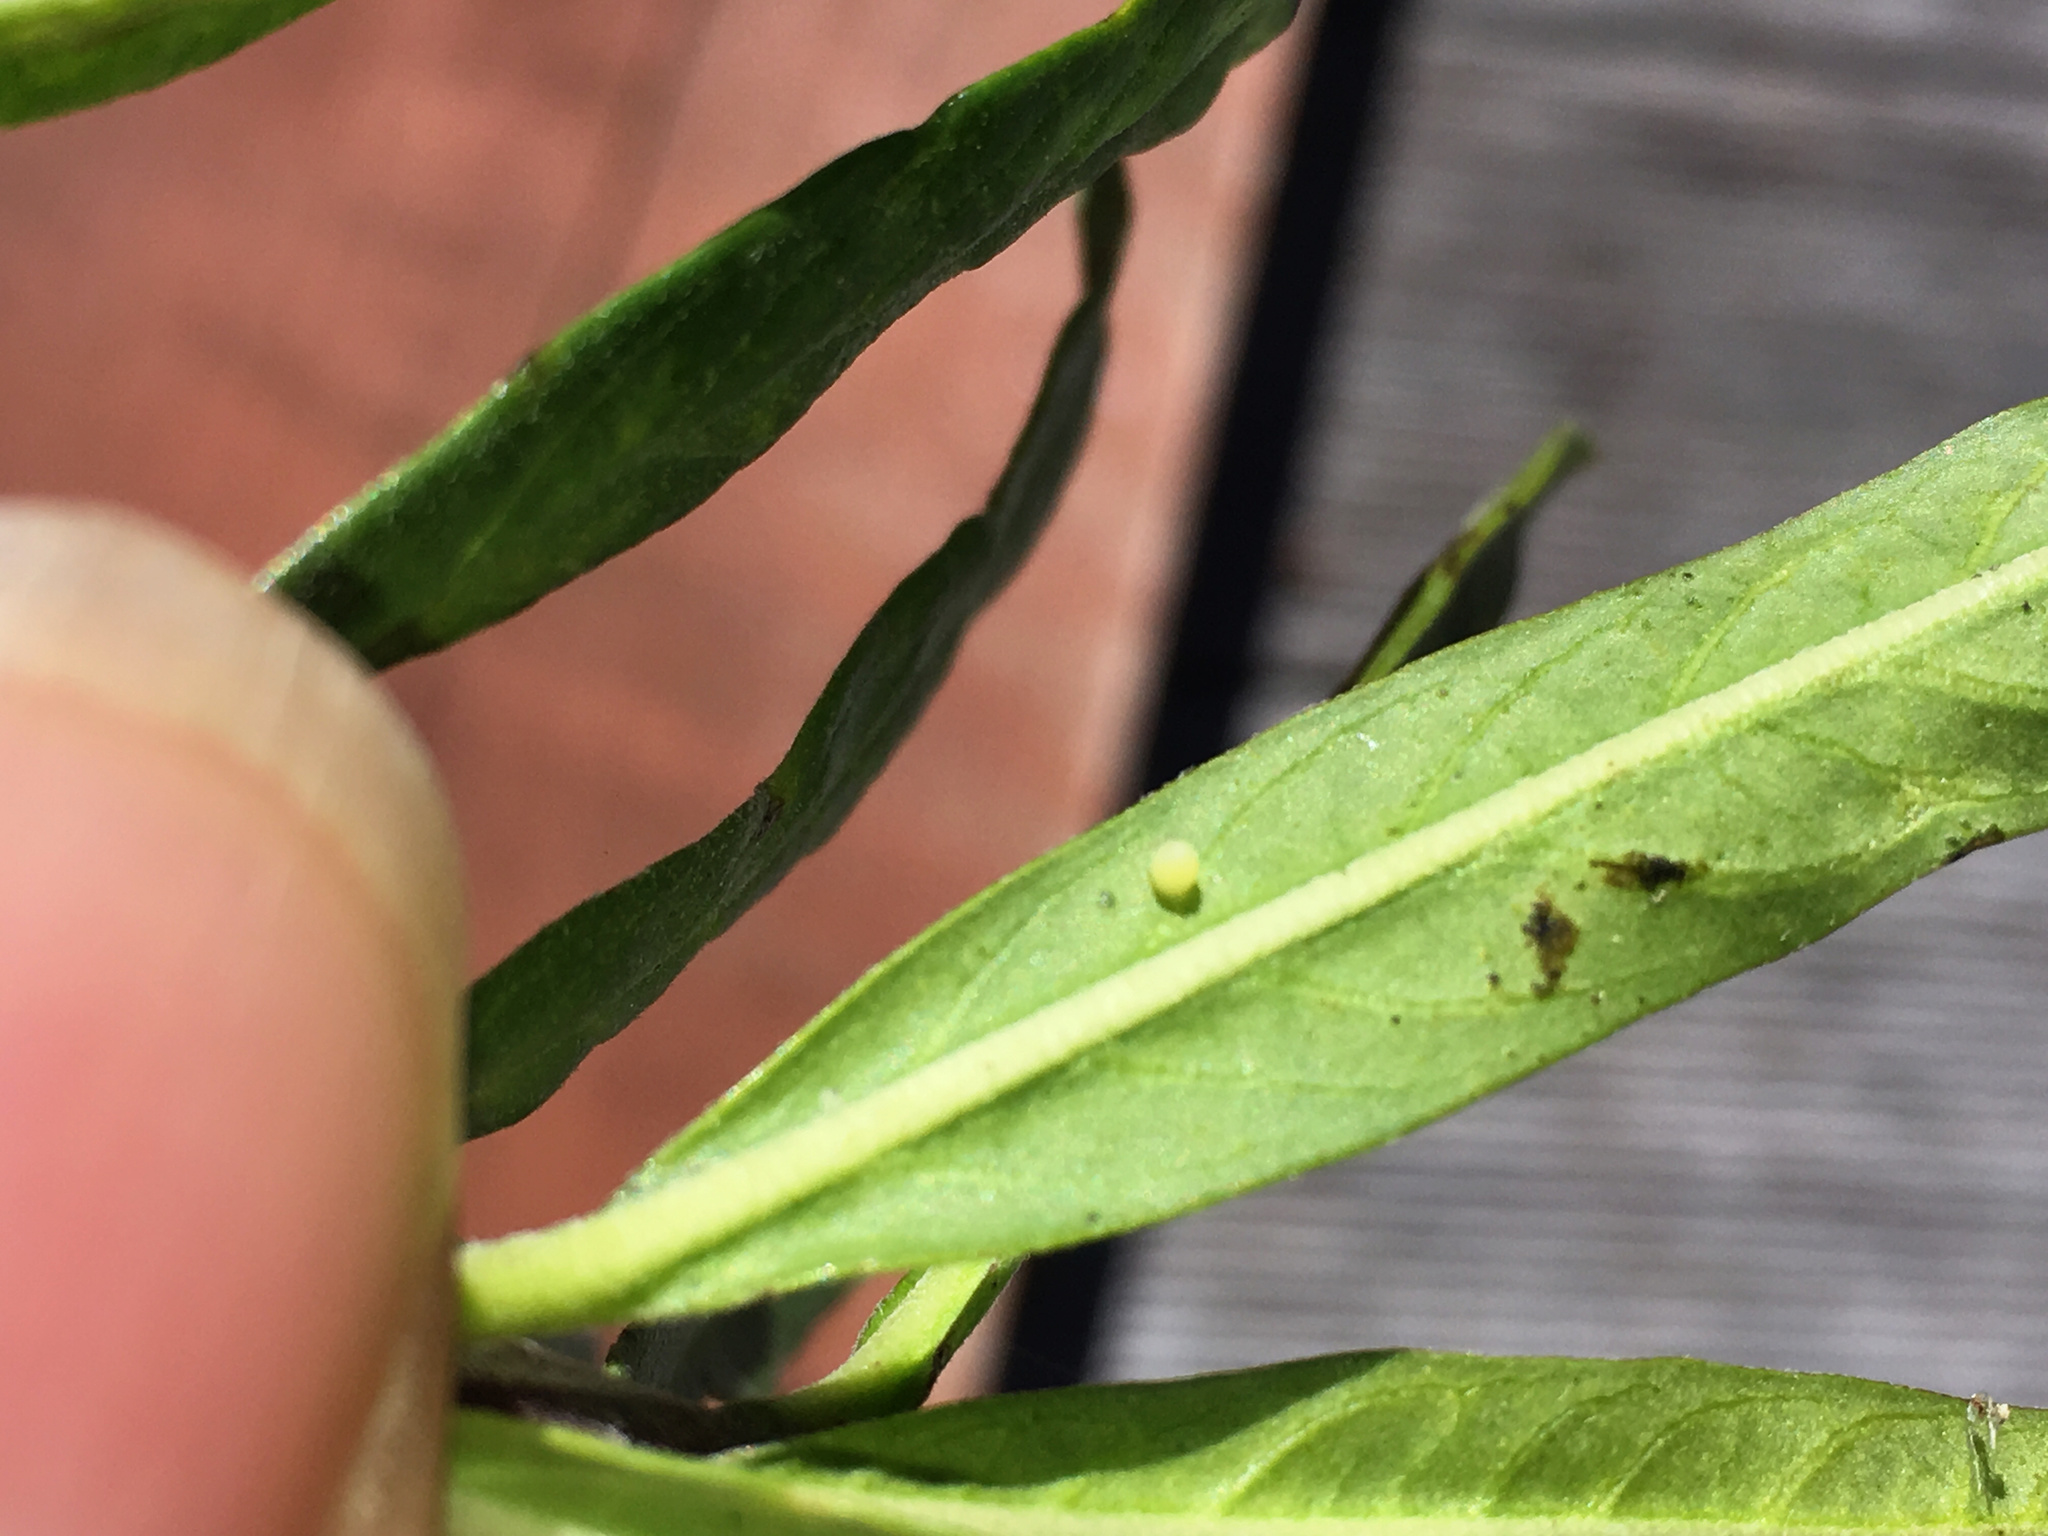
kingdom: Animalia
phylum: Arthropoda
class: Insecta
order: Lepidoptera
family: Nymphalidae
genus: Danaus
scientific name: Danaus plexippus
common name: Monarch
